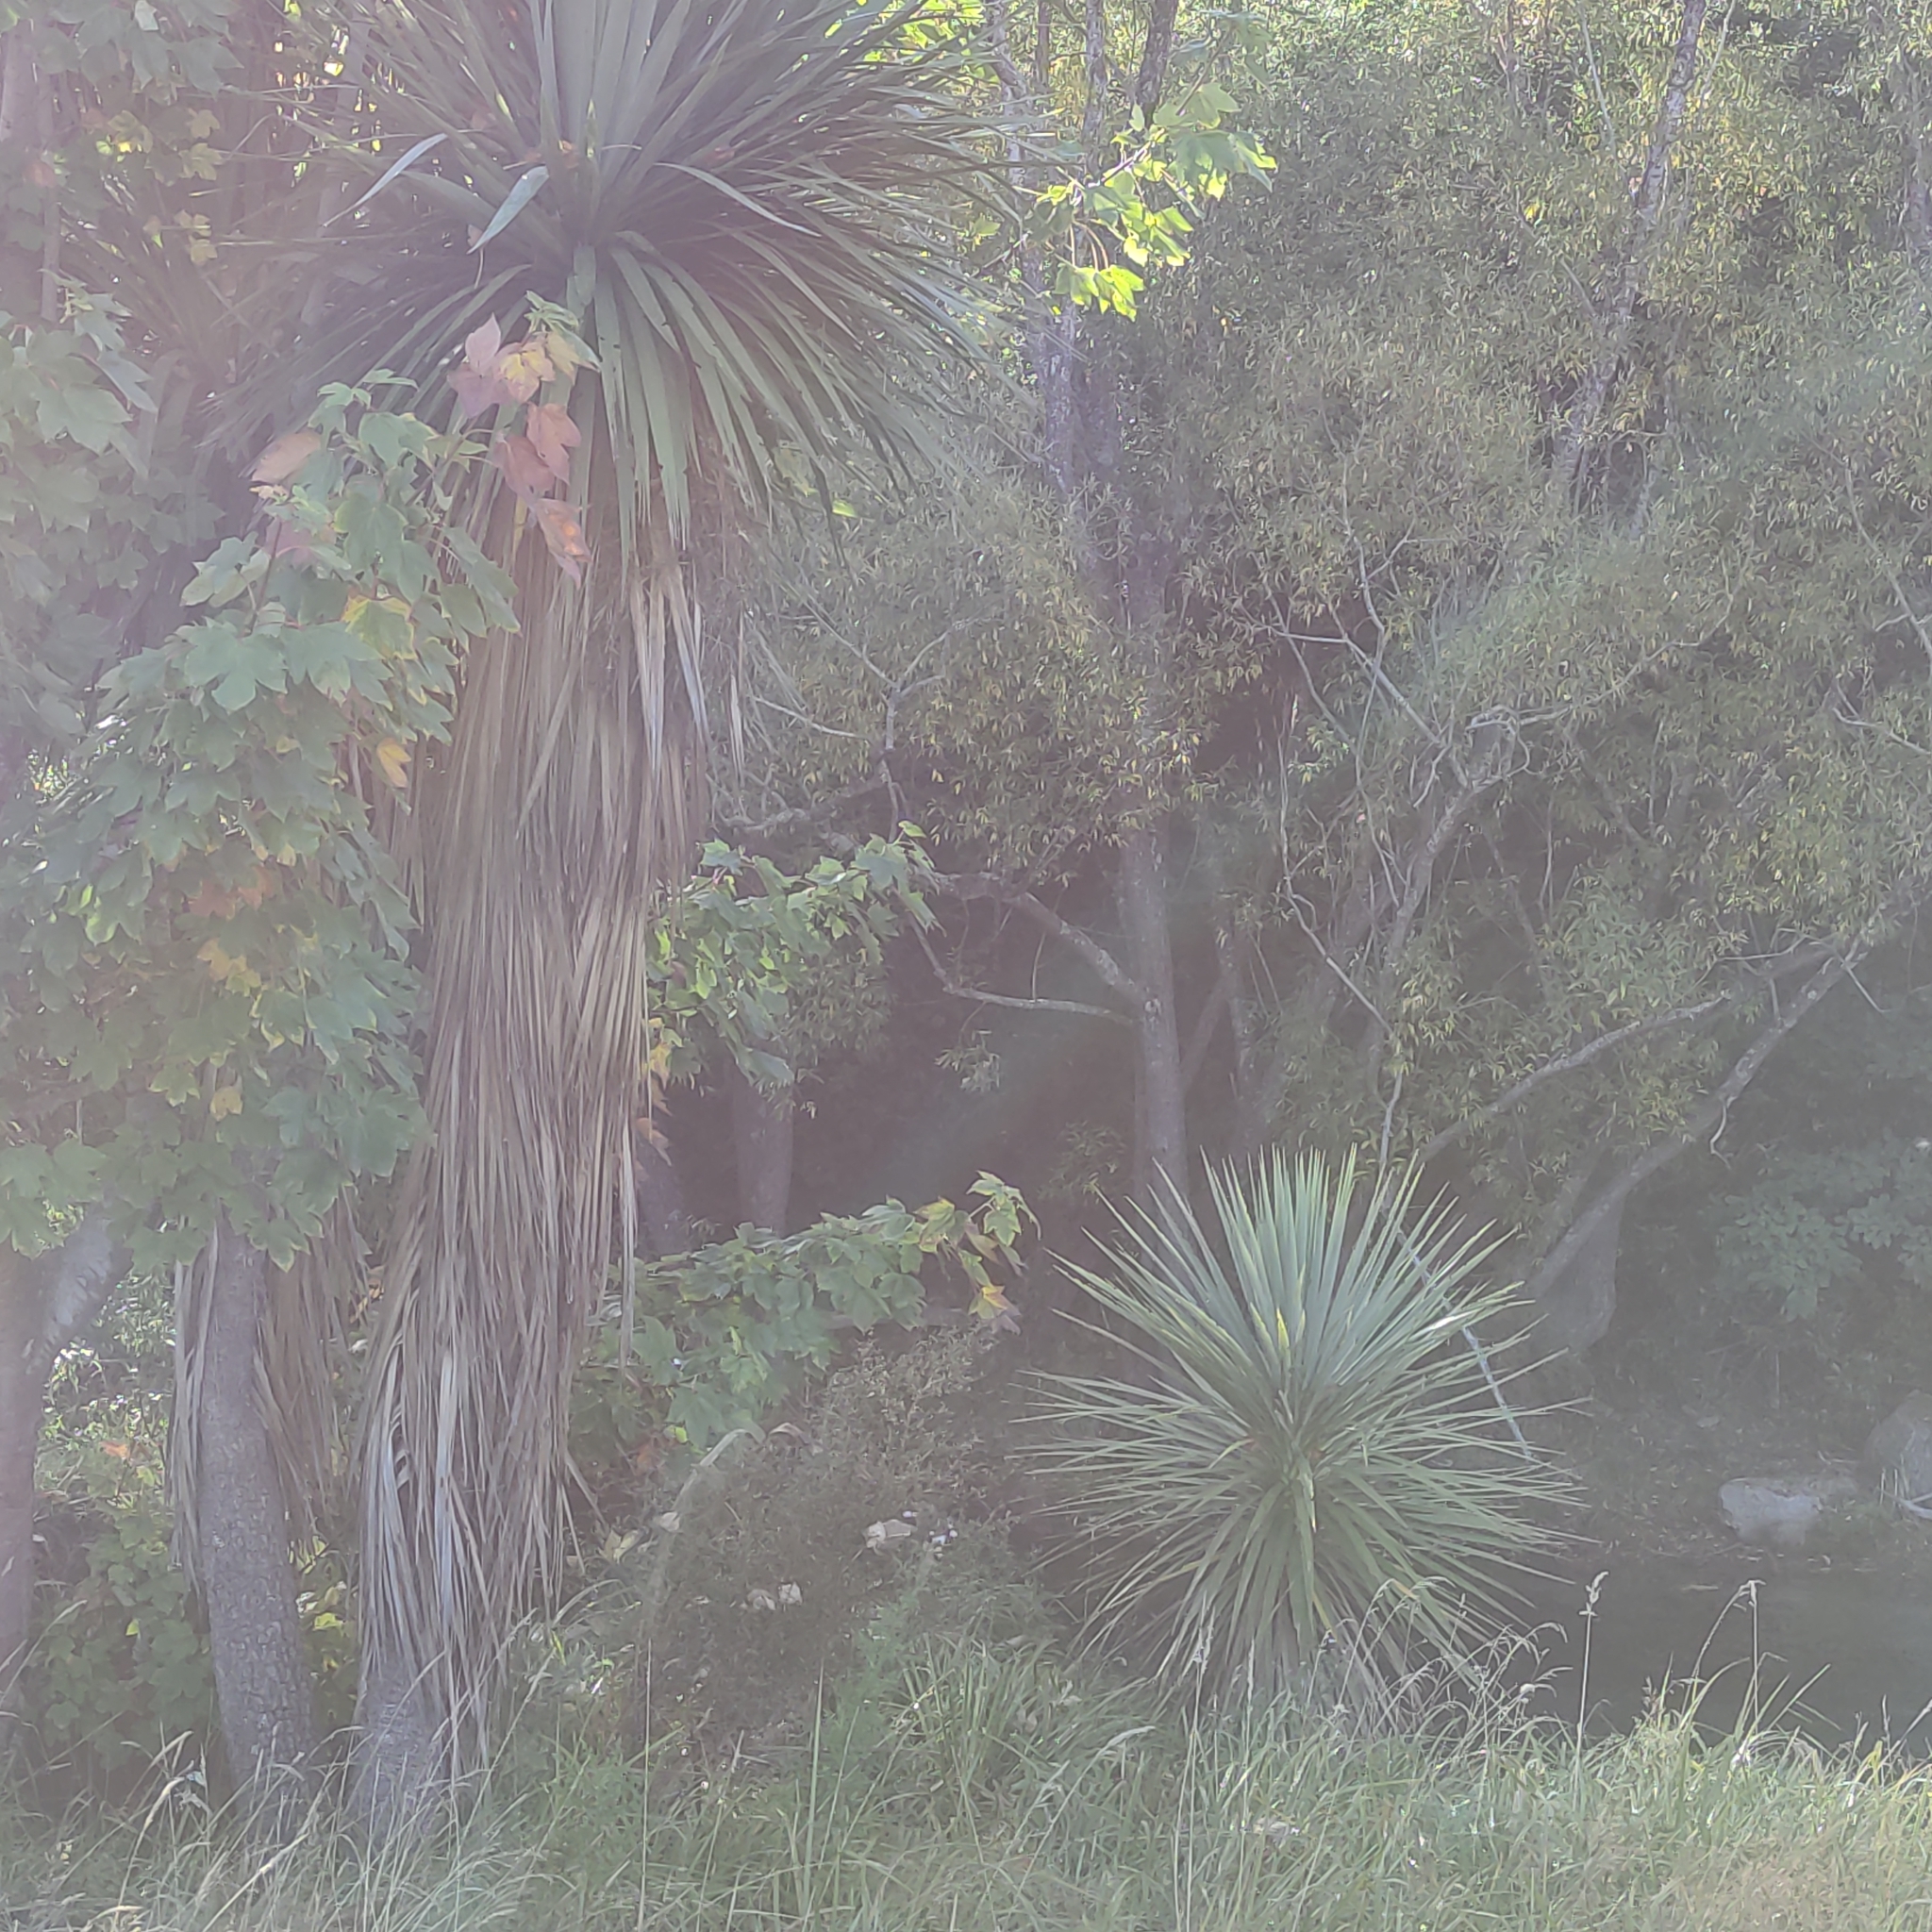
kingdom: Plantae
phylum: Tracheophyta
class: Liliopsida
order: Asparagales
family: Asparagaceae
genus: Cordyline
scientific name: Cordyline australis
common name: Cabbage-palm
